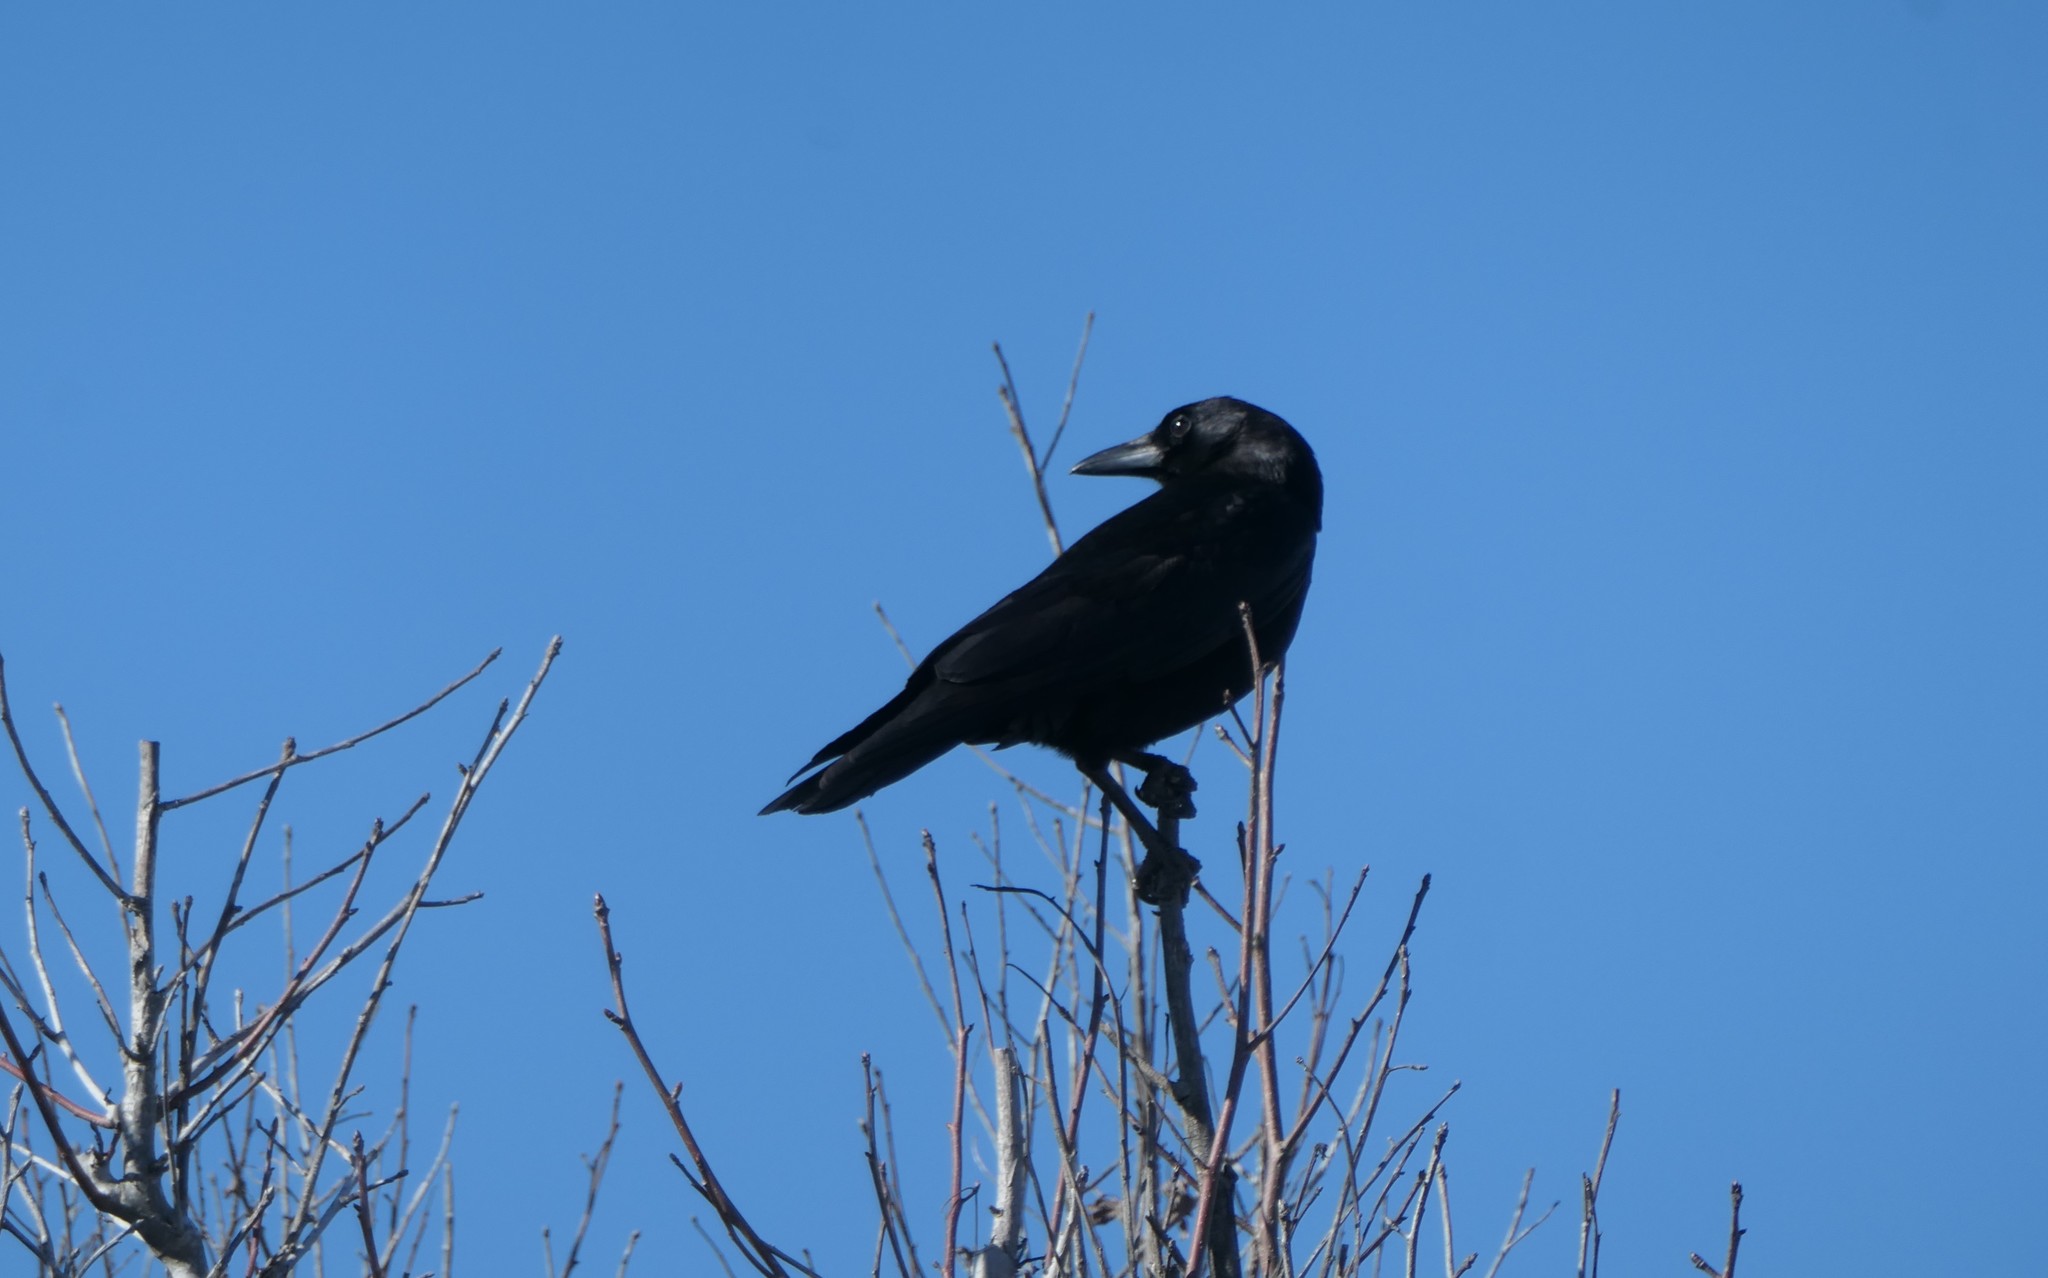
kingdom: Animalia
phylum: Chordata
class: Aves
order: Passeriformes
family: Corvidae
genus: Corvus
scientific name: Corvus brachyrhynchos
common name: American crow
